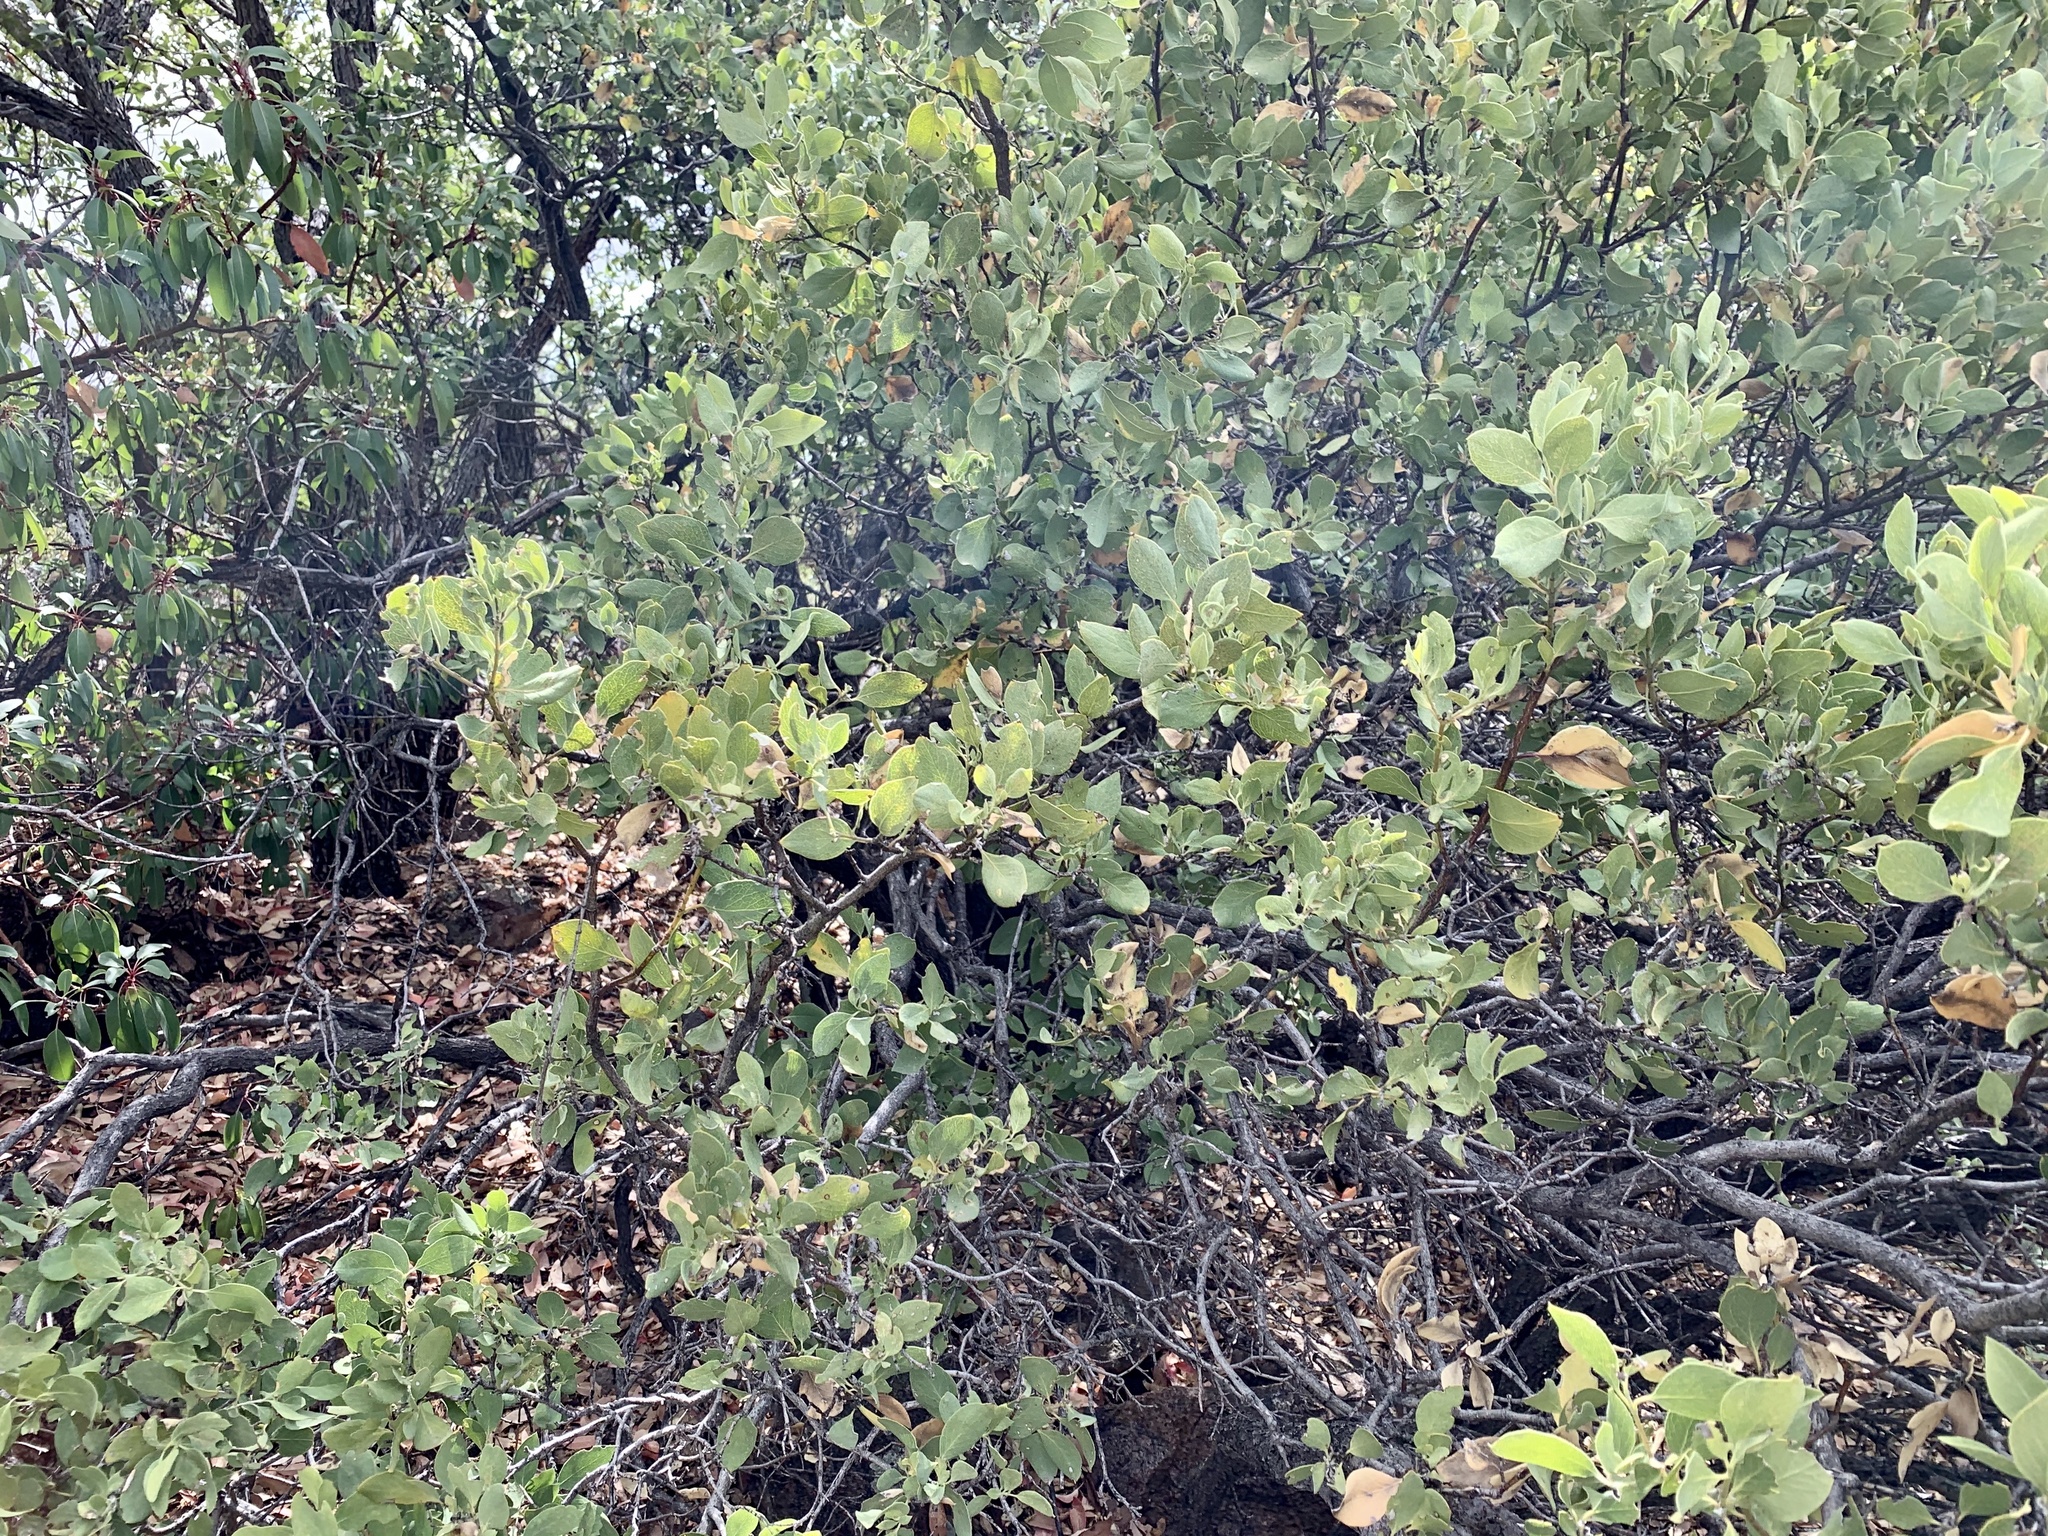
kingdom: Plantae
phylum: Tracheophyta
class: Magnoliopsida
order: Garryales
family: Garryaceae
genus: Garrya
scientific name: Garrya wrightii
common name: Wright's silktassel
